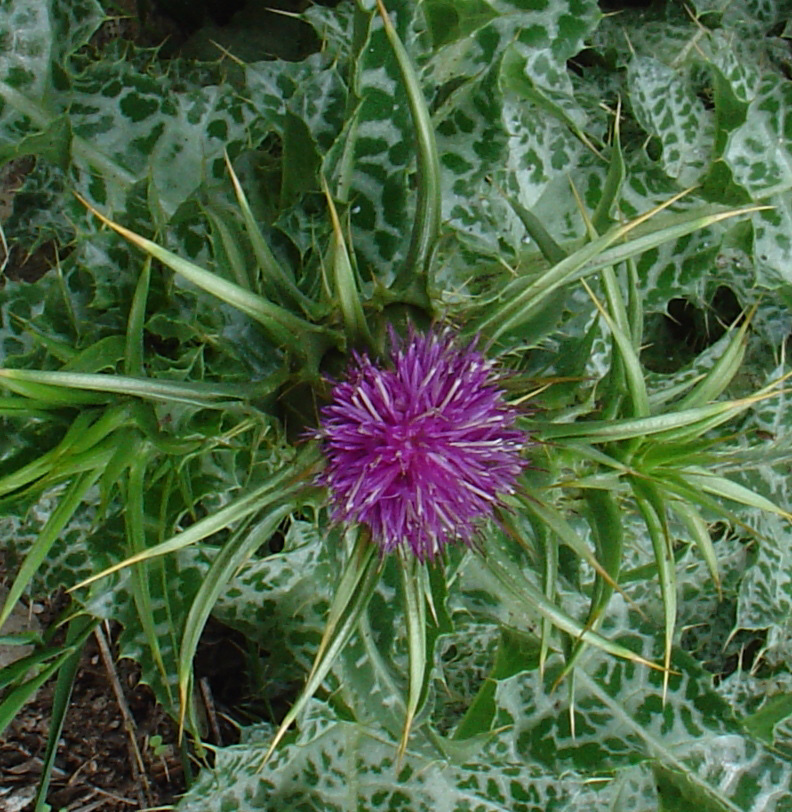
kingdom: Plantae
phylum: Tracheophyta
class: Magnoliopsida
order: Asterales
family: Asteraceae
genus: Silybum
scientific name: Silybum marianum
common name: Milk thistle
